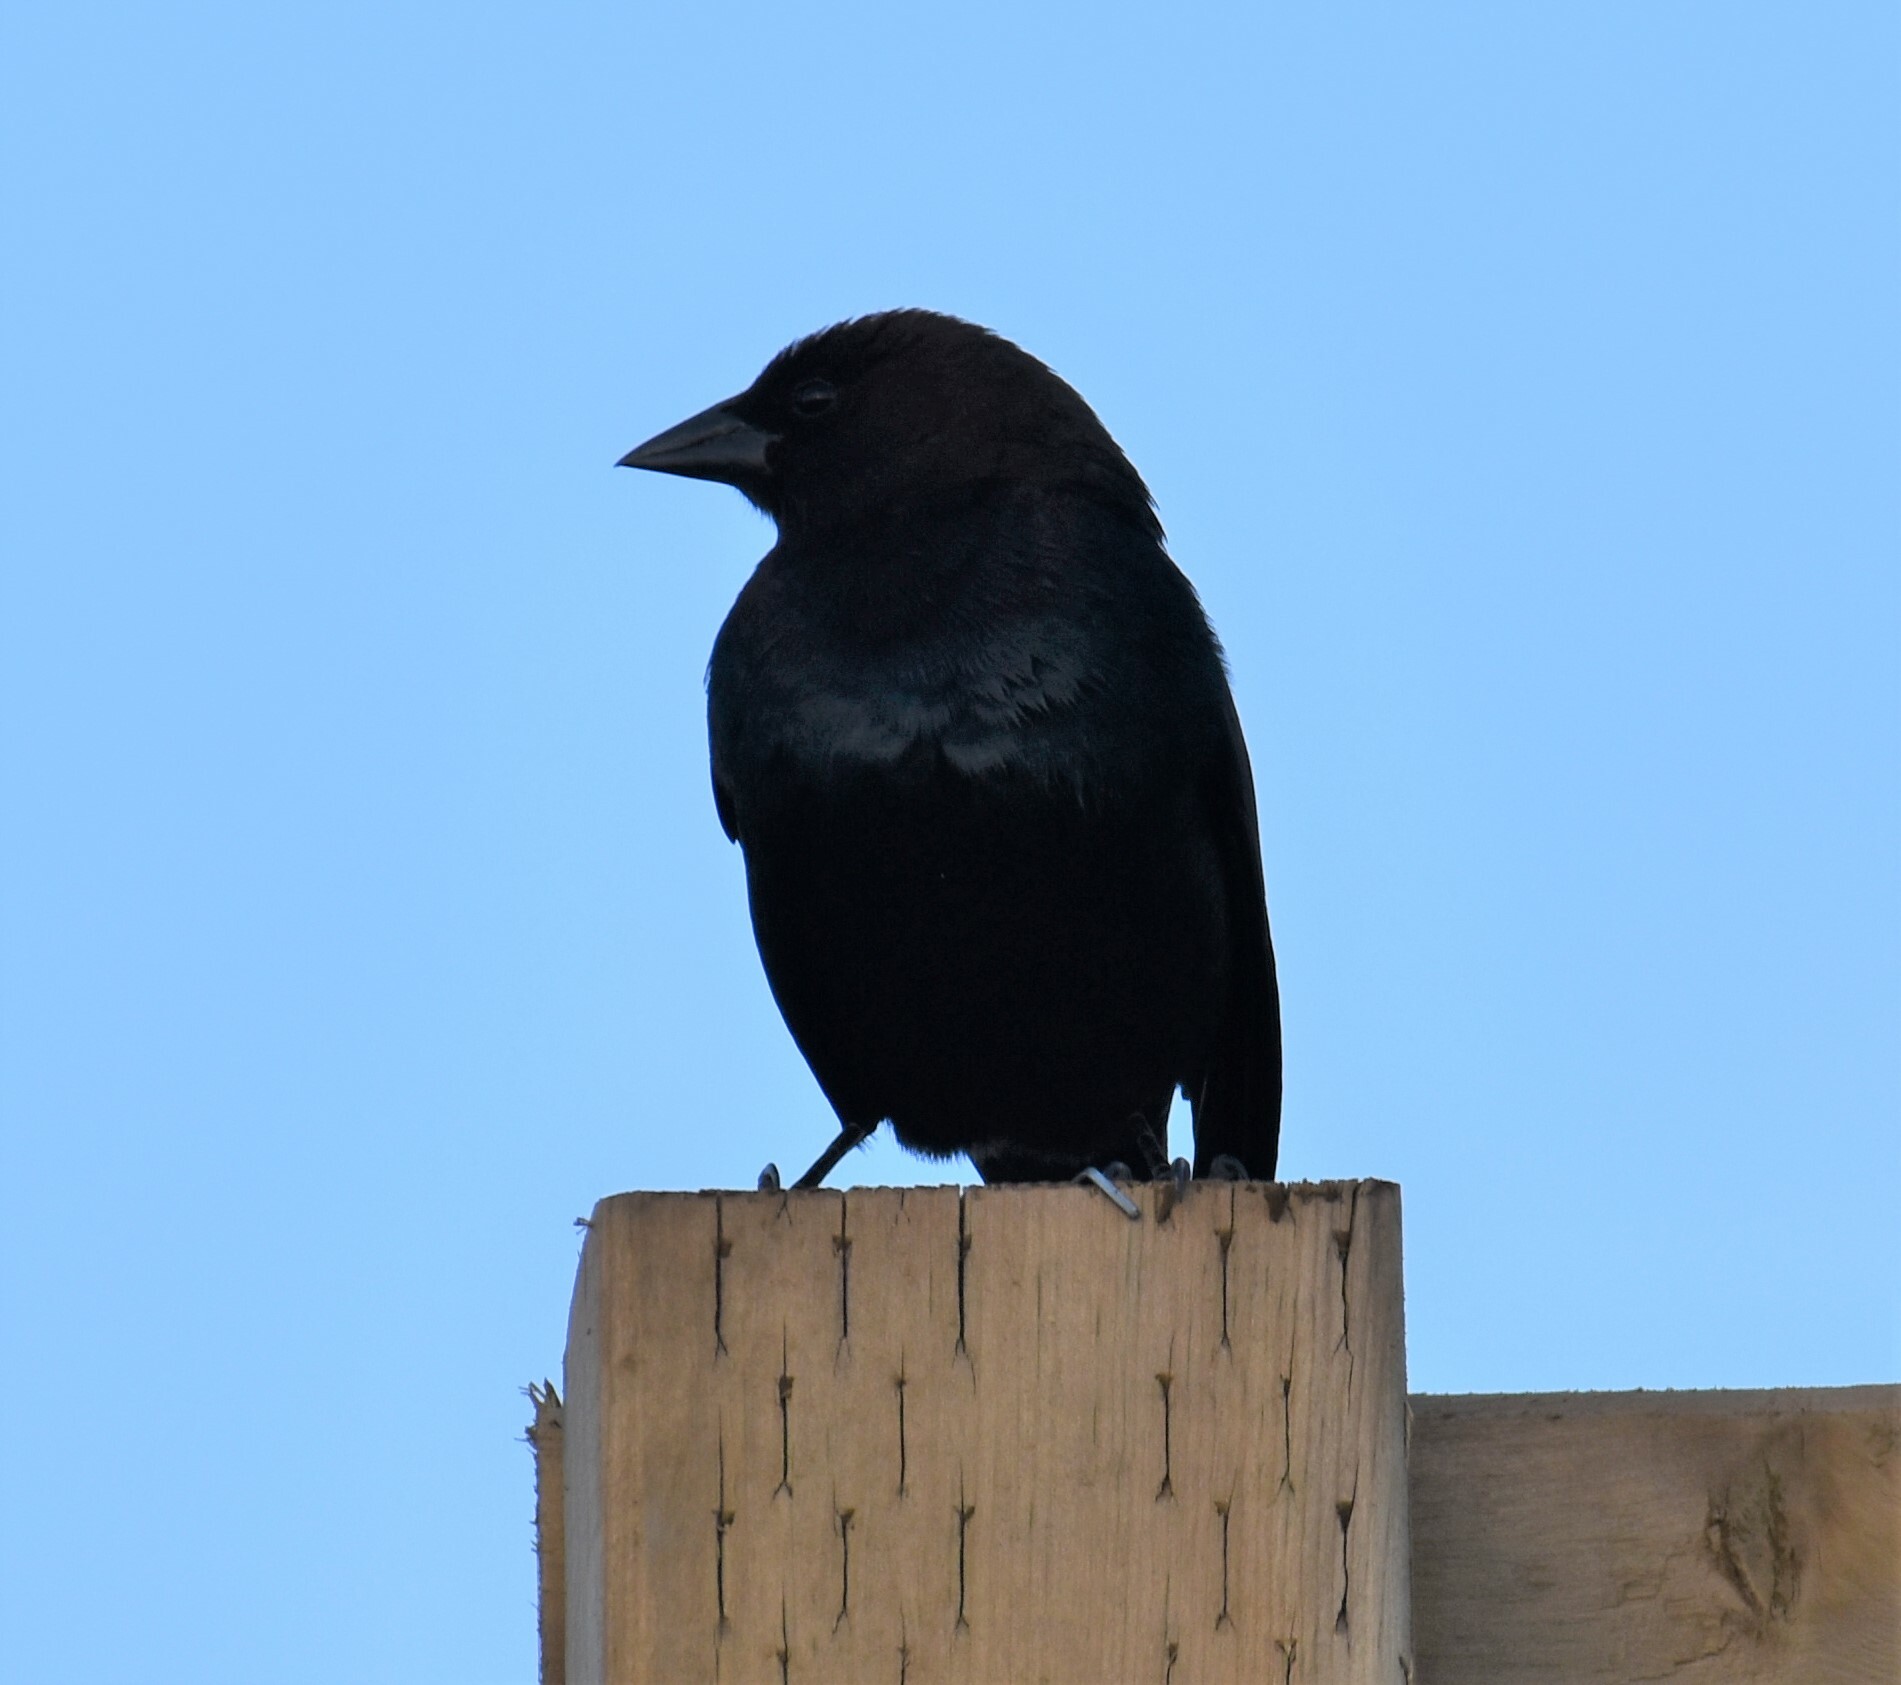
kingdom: Animalia
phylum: Chordata
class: Aves
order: Passeriformes
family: Icteridae
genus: Molothrus
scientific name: Molothrus ater
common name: Brown-headed cowbird
